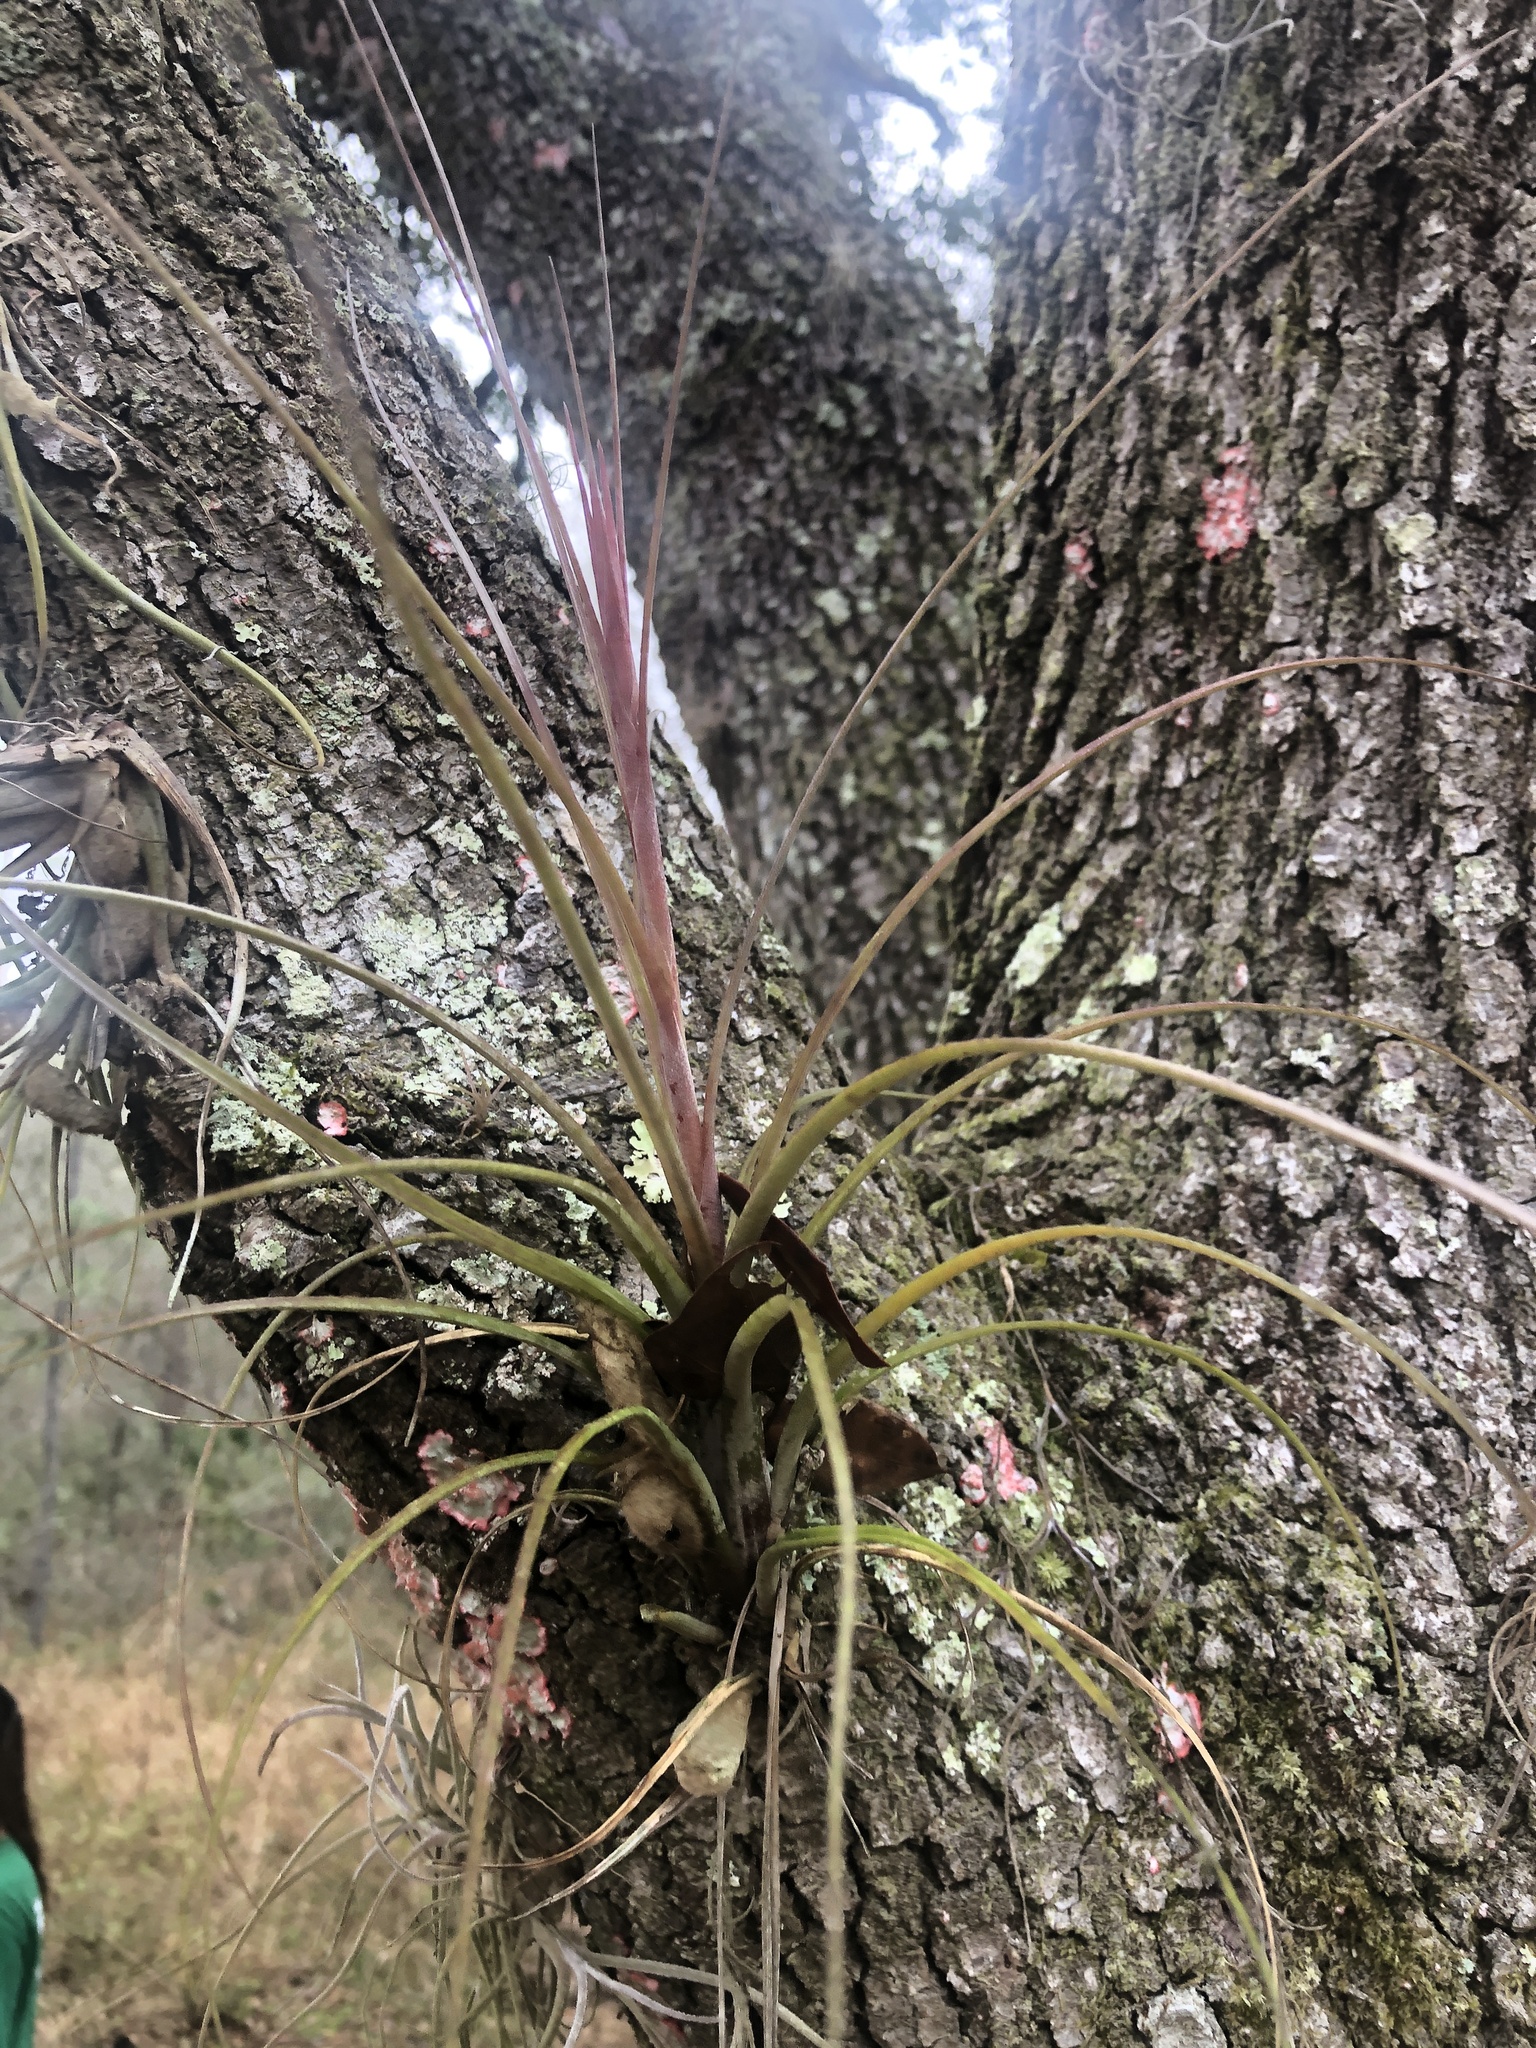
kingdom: Plantae
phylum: Tracheophyta
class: Liliopsida
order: Poales
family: Bromeliaceae
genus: Tillandsia
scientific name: Tillandsia simulata
